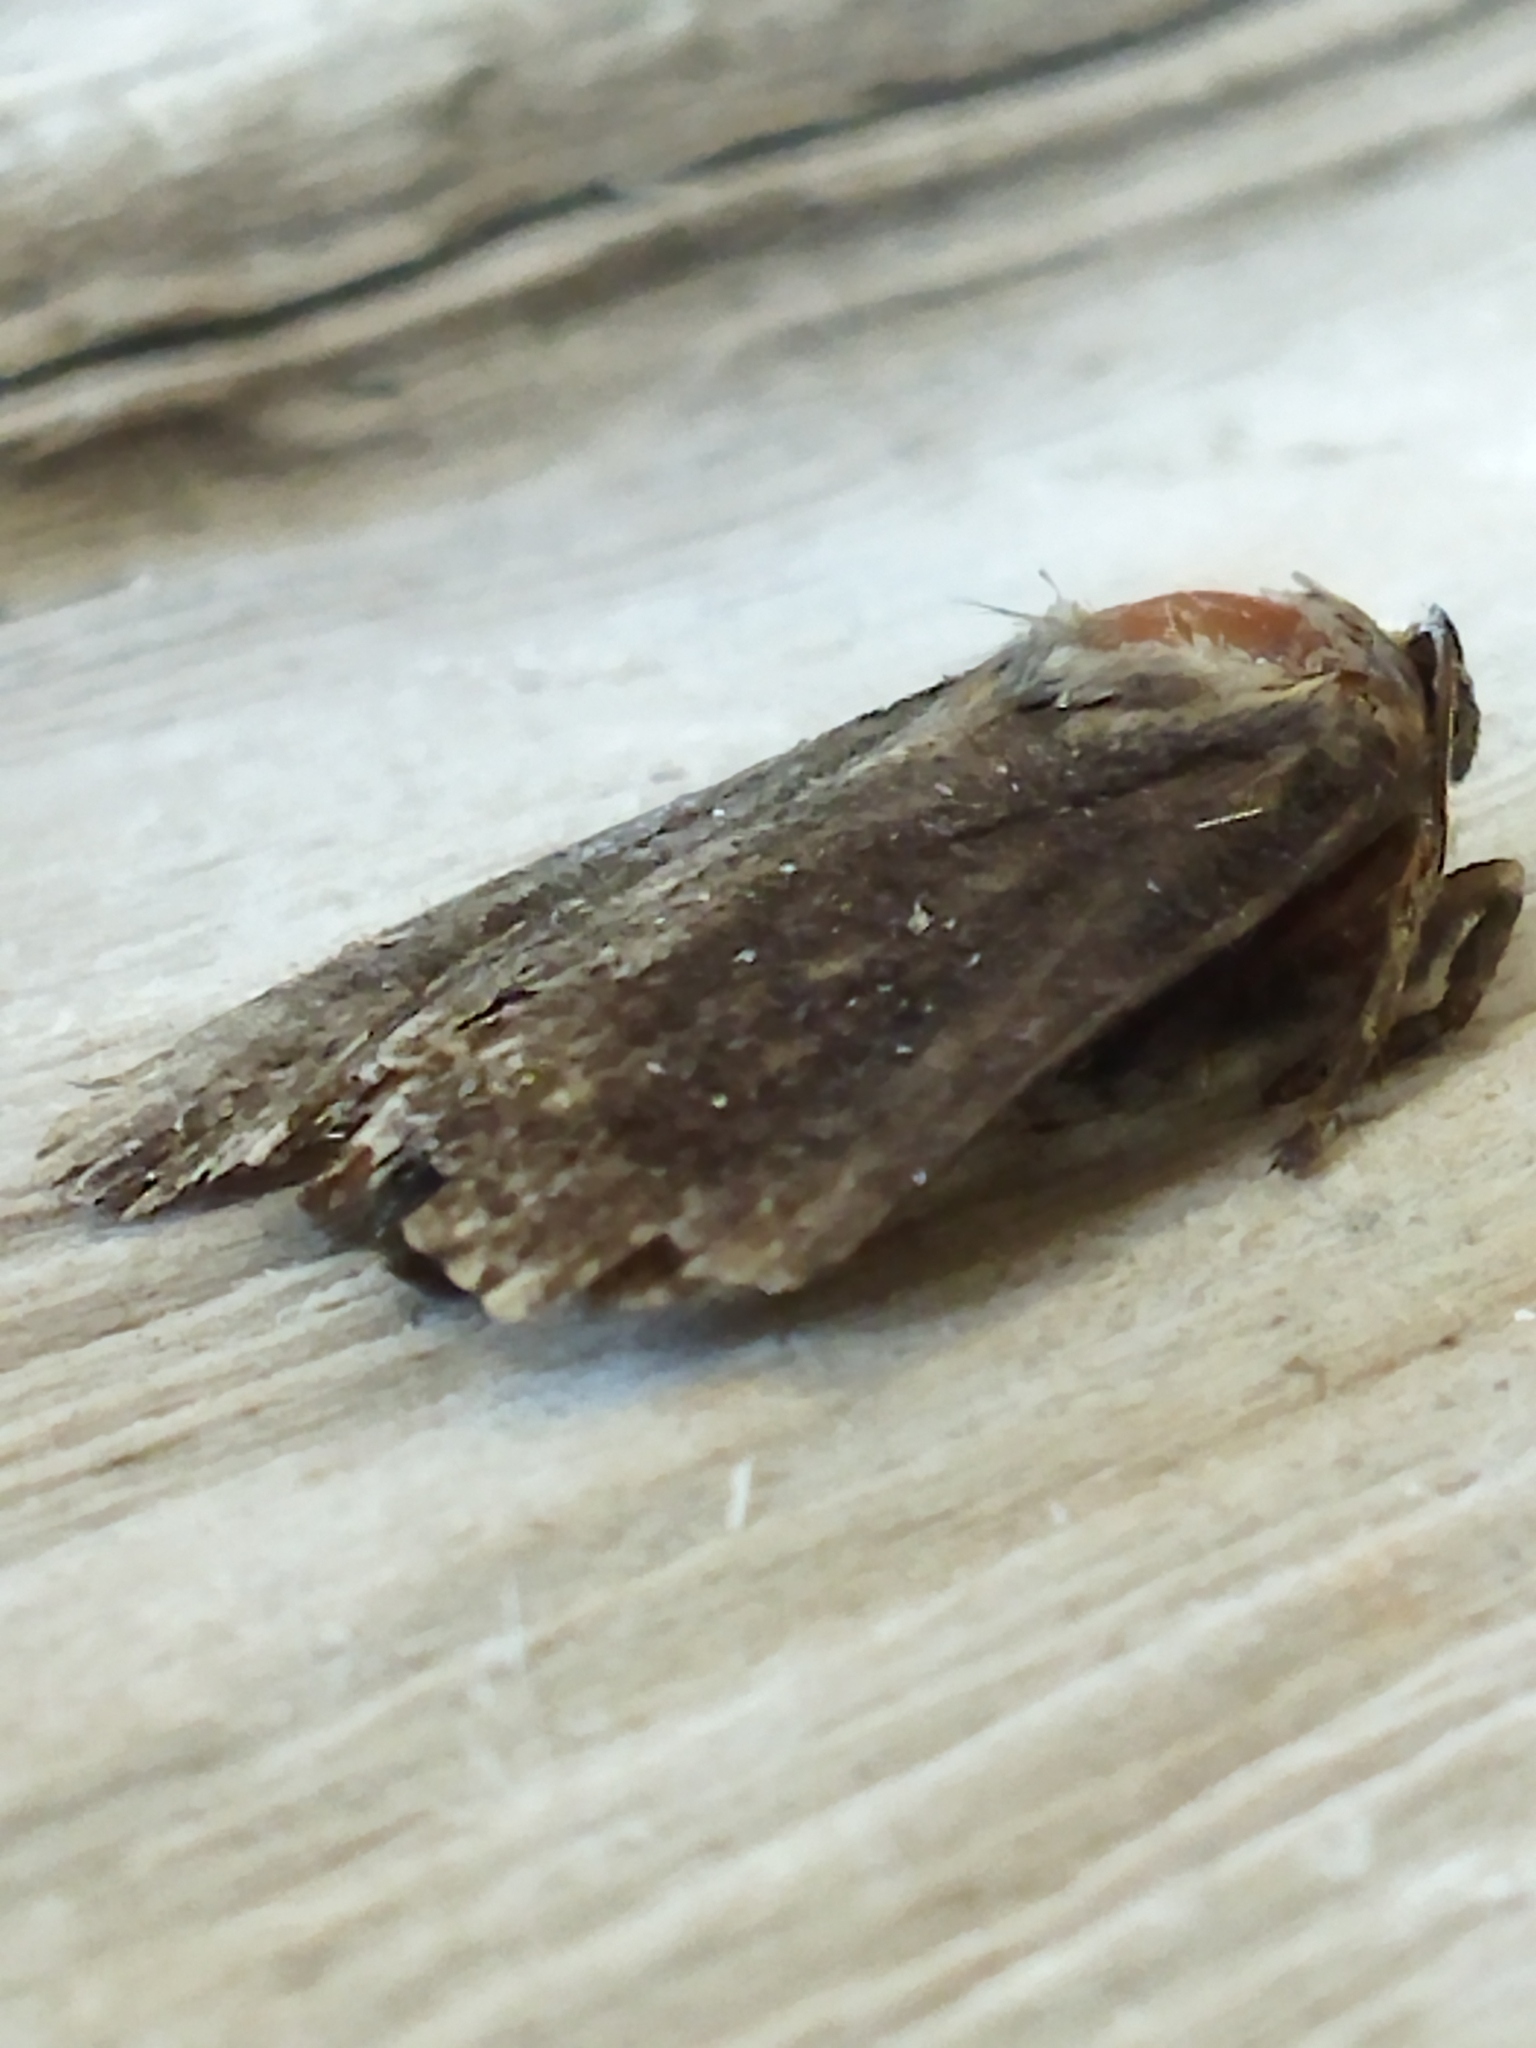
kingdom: Animalia
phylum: Arthropoda
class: Insecta
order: Lepidoptera
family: Noctuidae
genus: Amphipyra
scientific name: Amphipyra livida
